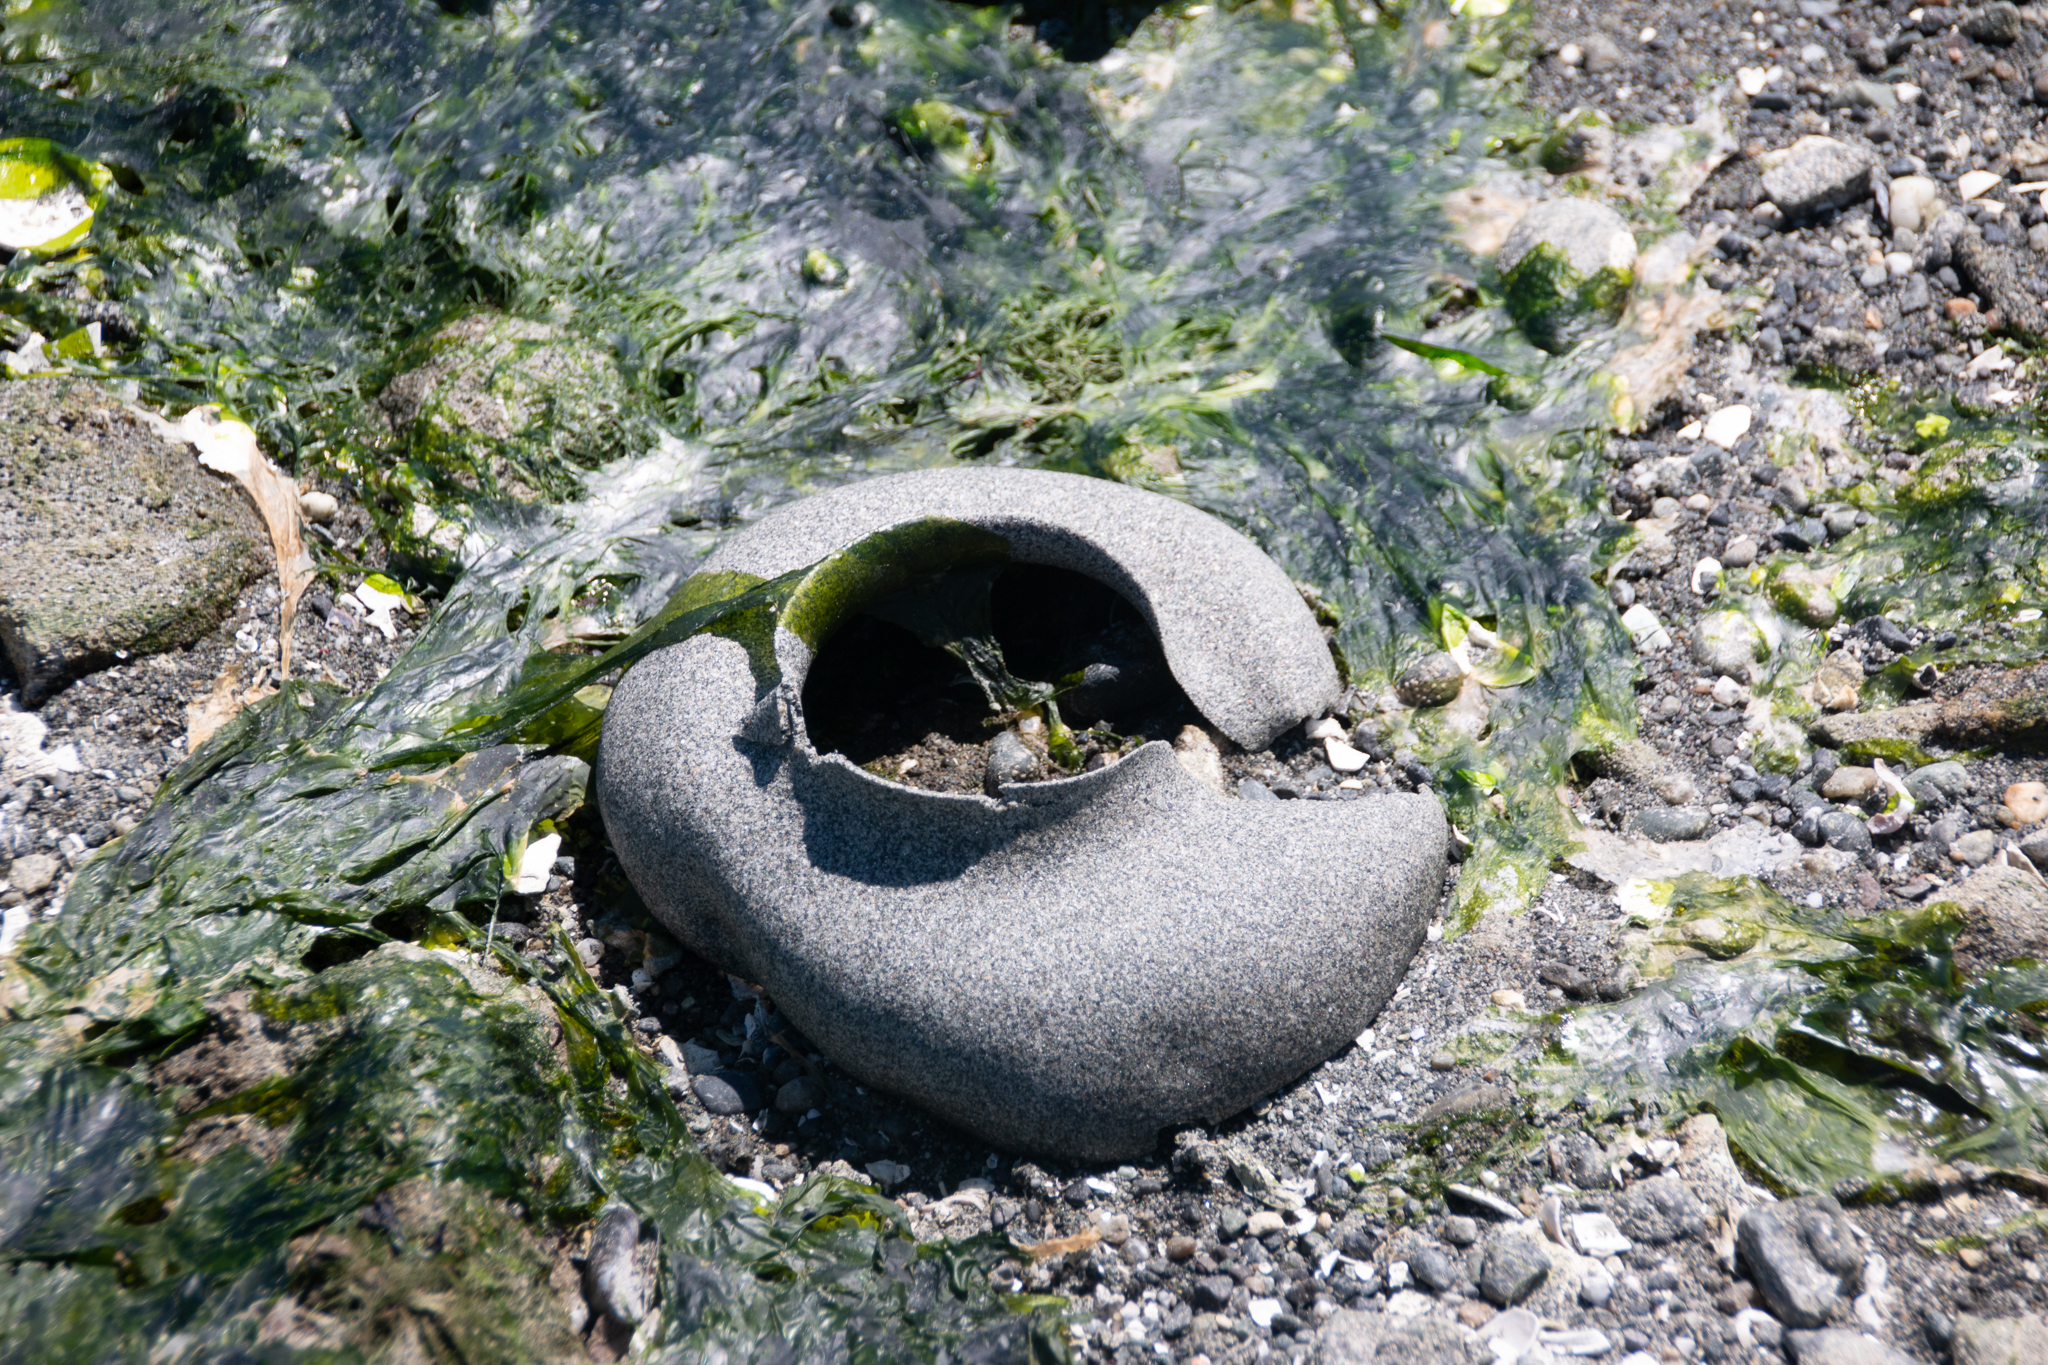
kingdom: Animalia
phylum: Mollusca
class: Gastropoda
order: Littorinimorpha
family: Naticidae
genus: Neverita
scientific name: Neverita lewisii
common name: Lewis' moonsnail
